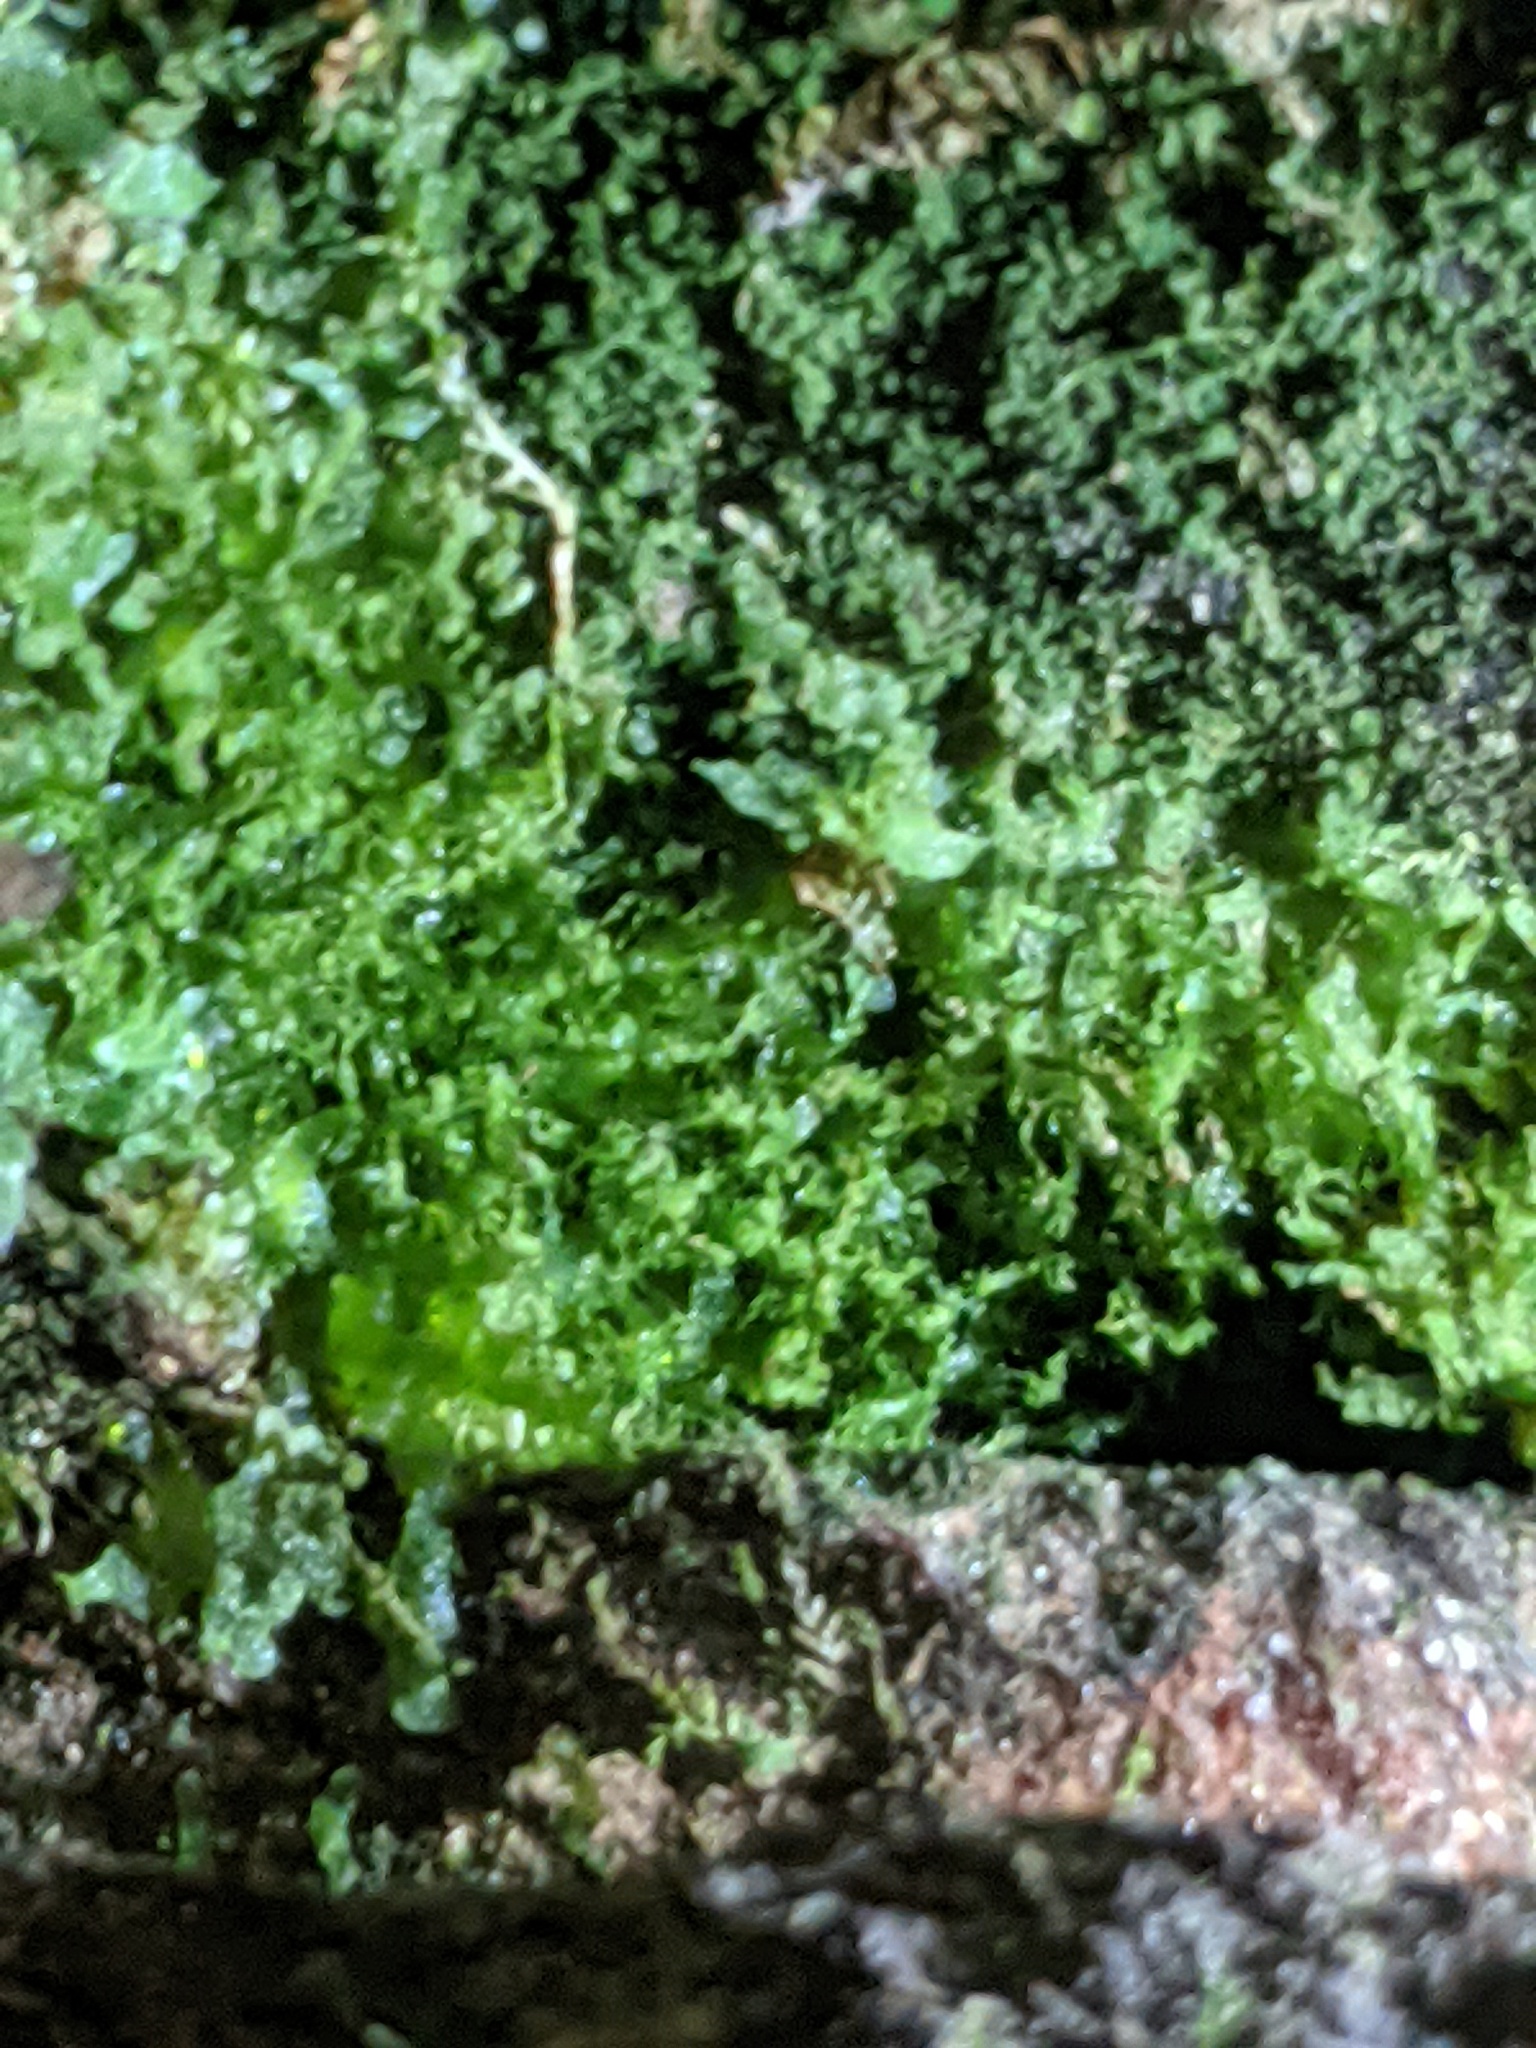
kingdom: Plantae
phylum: Tracheophyta
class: Polypodiopsida
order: Polypodiales
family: Pteridaceae
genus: Vittaria
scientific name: Vittaria appalachiana
